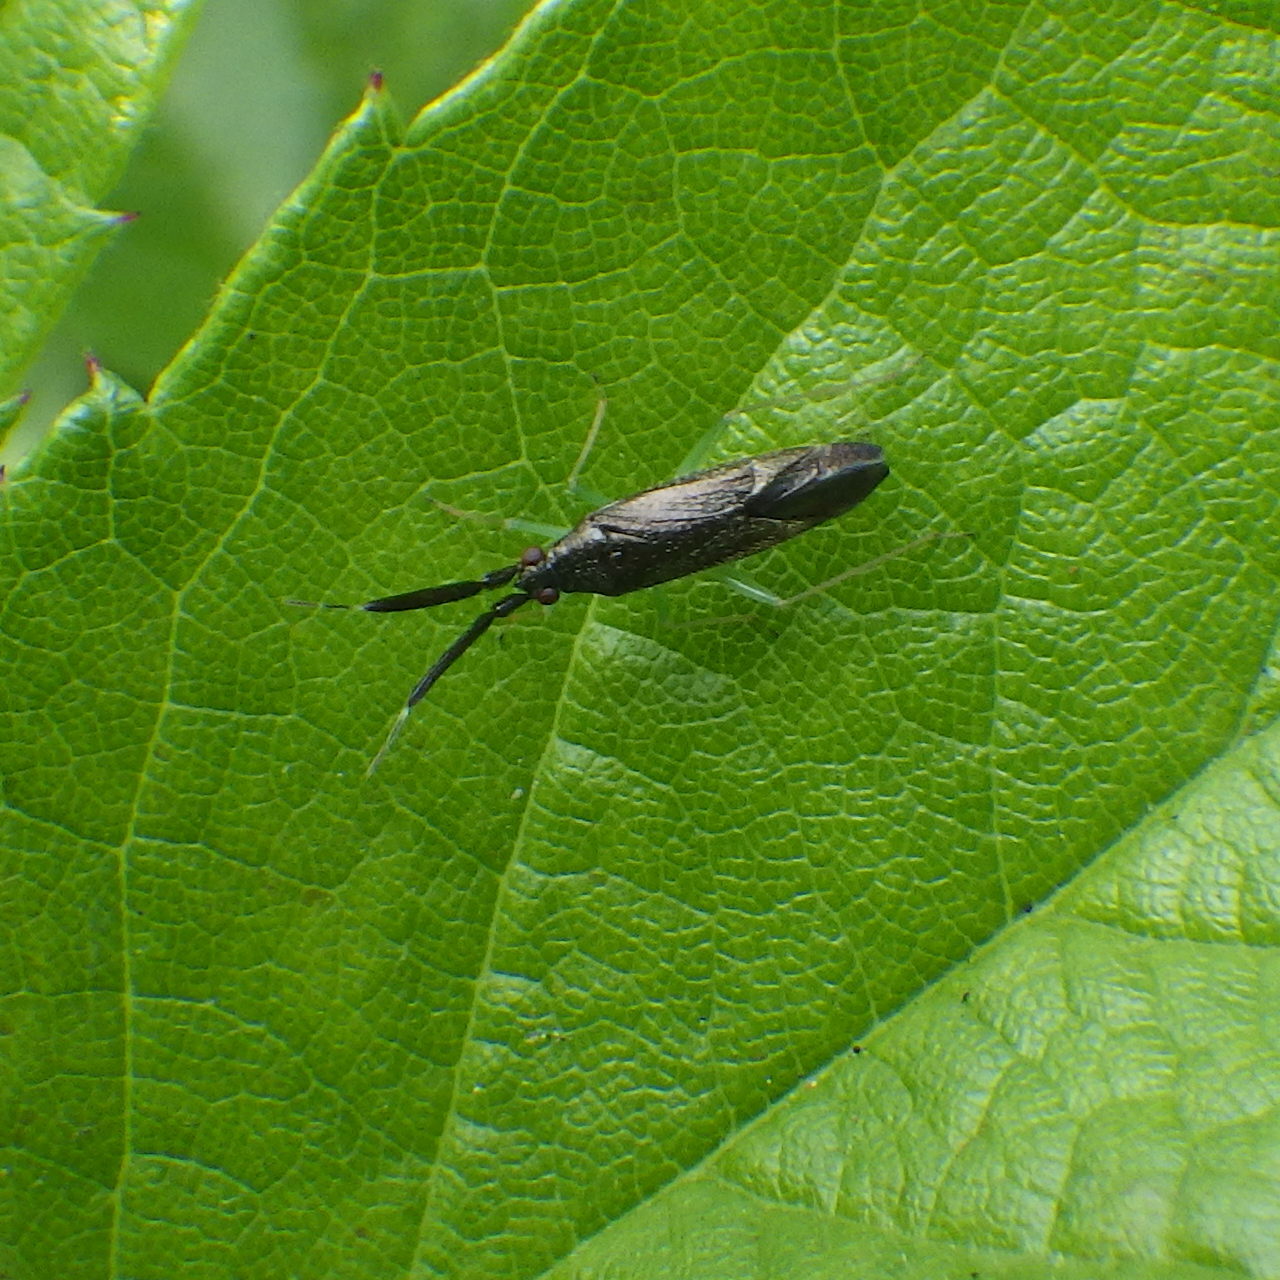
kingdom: Animalia
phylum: Arthropoda
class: Insecta
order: Hemiptera
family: Miridae
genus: Heterotoma
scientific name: Heterotoma planicornis
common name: Plant bug
